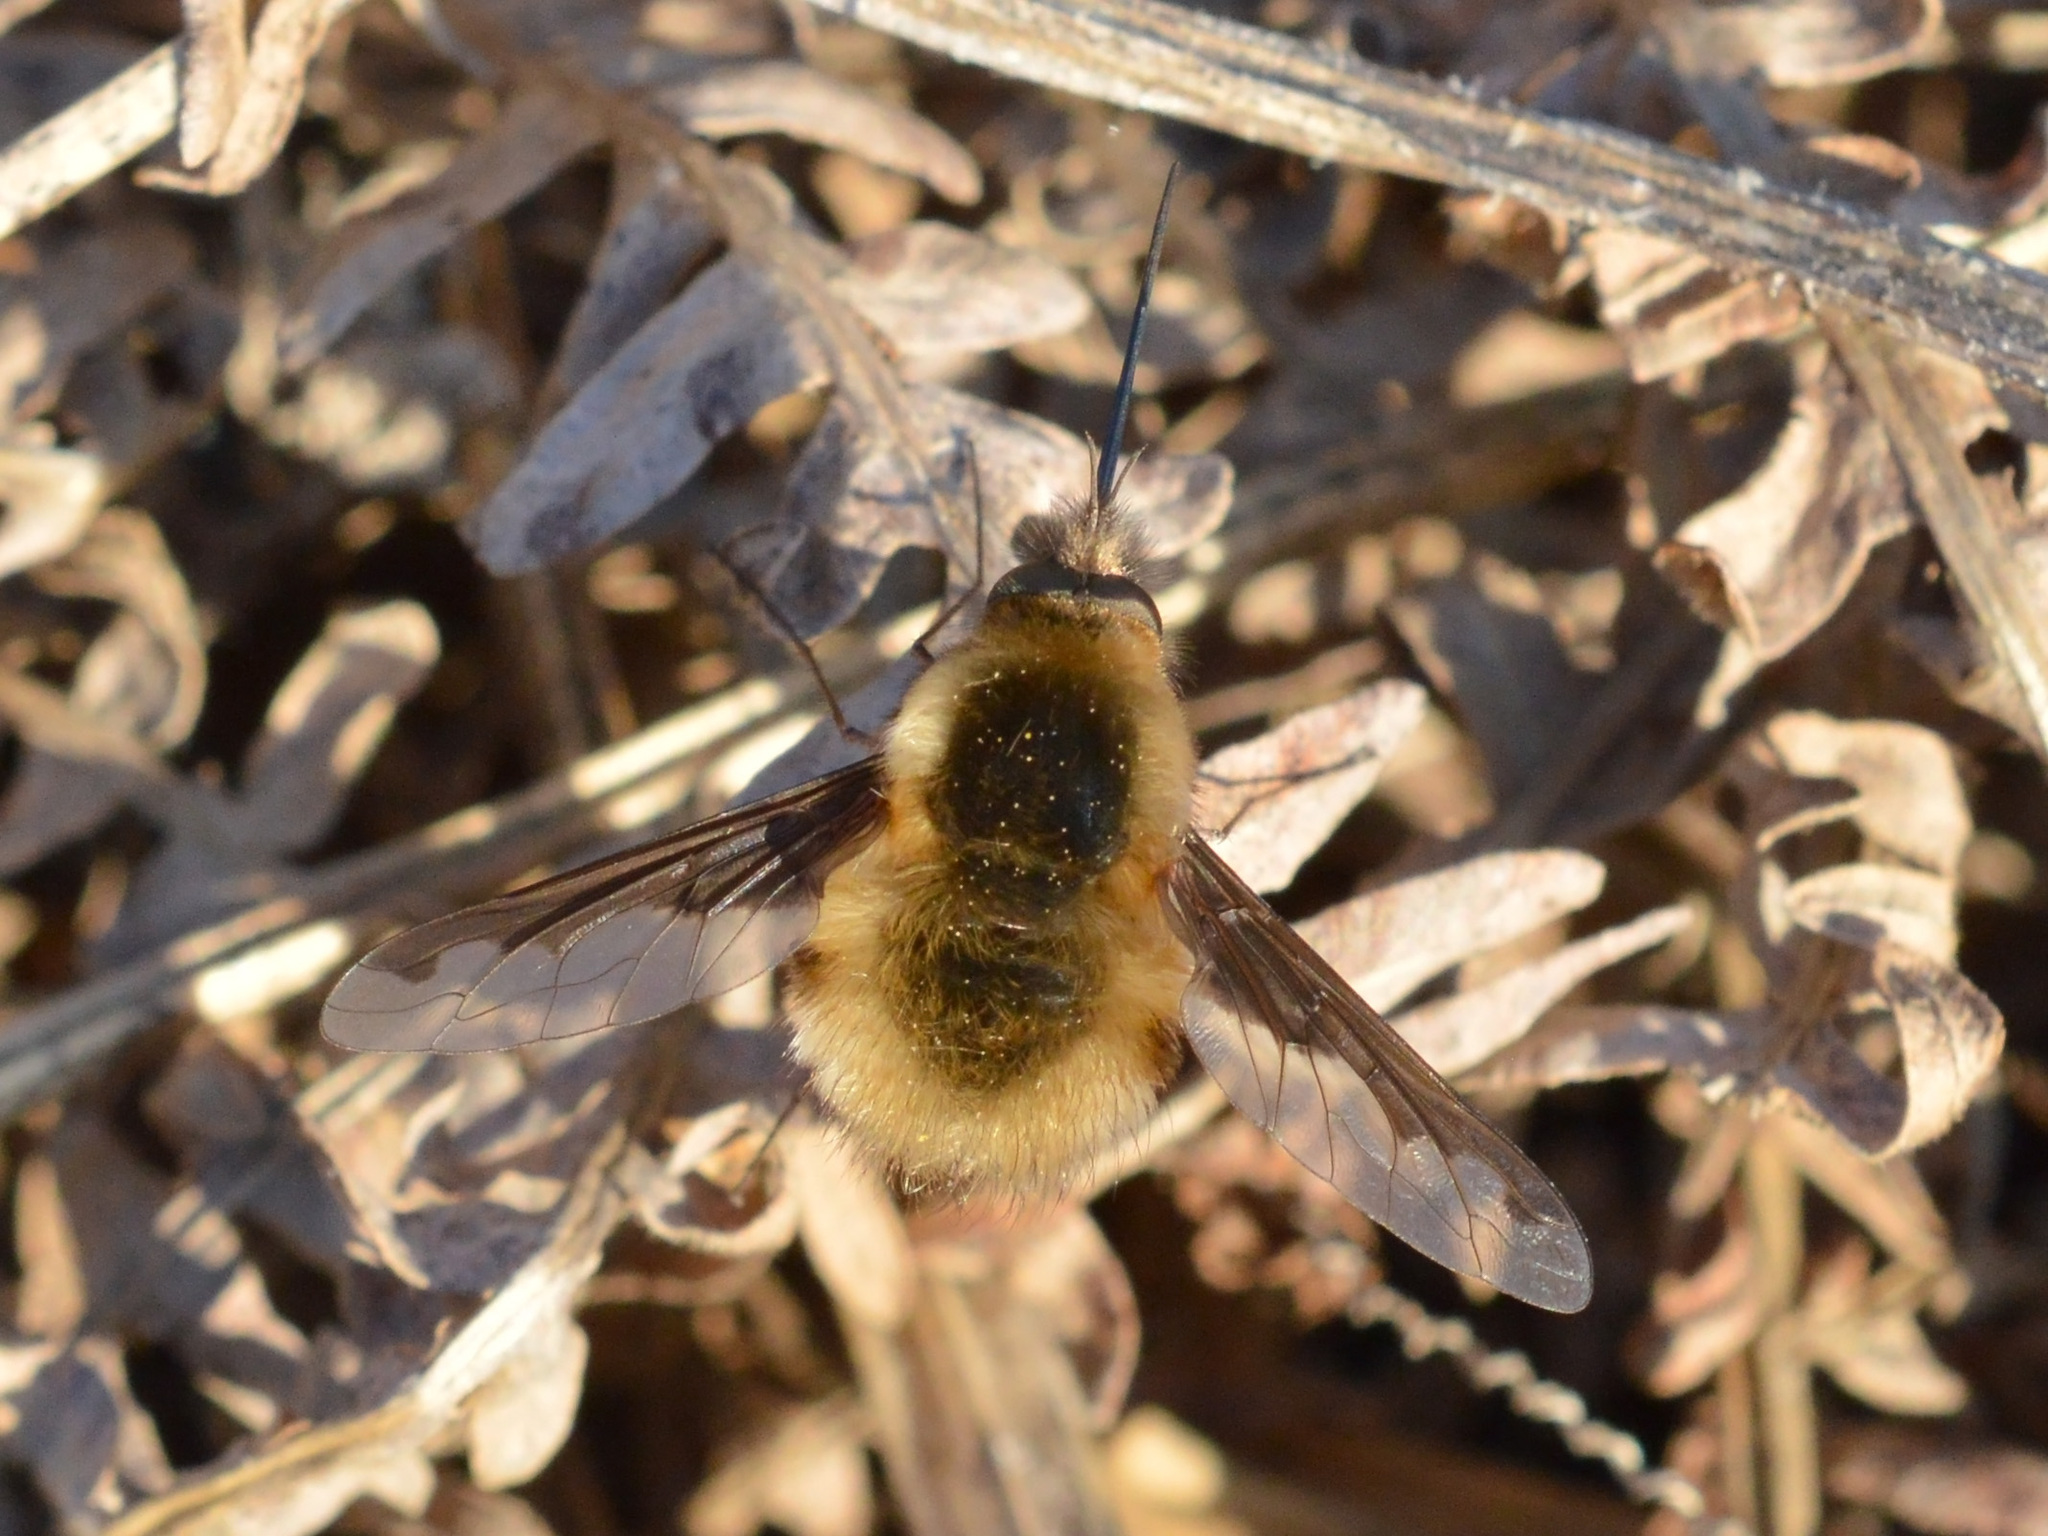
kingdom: Animalia
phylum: Arthropoda
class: Insecta
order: Diptera
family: Bombyliidae
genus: Bombylius
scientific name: Bombylius major
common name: Bee fly
